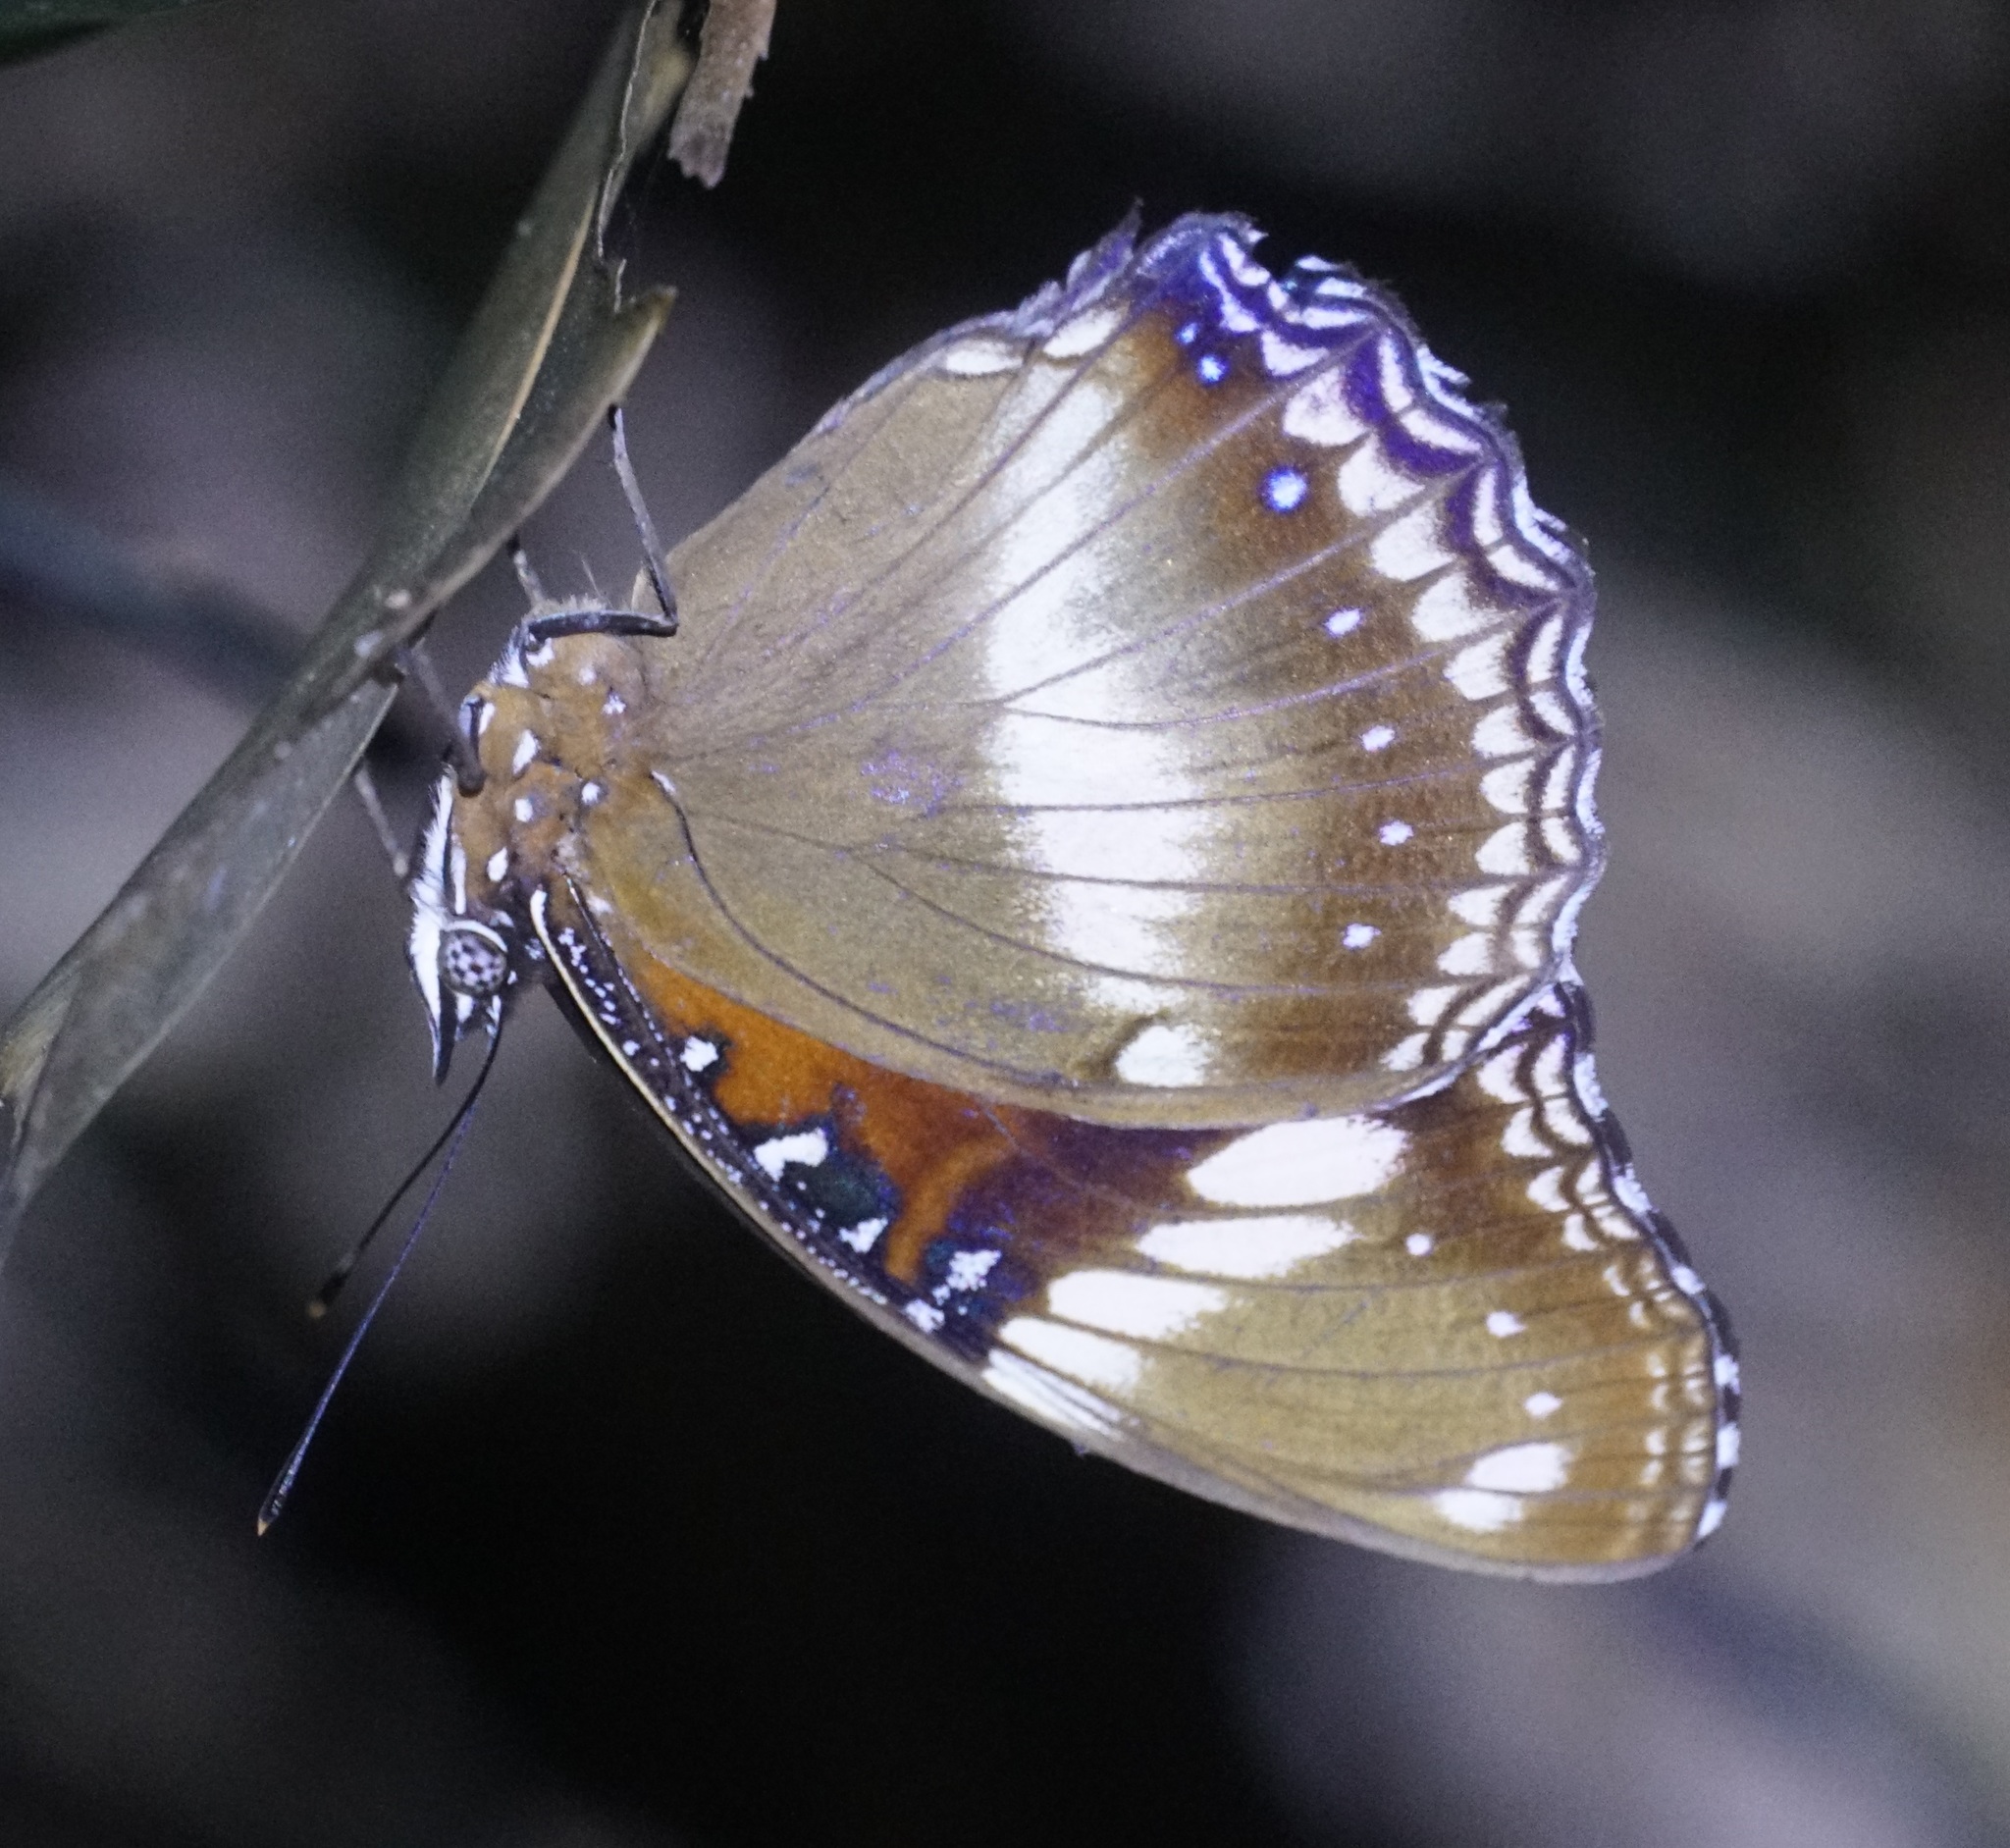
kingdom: Animalia
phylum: Arthropoda
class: Insecta
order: Lepidoptera
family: Nymphalidae
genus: Hypolimnas
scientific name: Hypolimnas bolina
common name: Great eggfly
